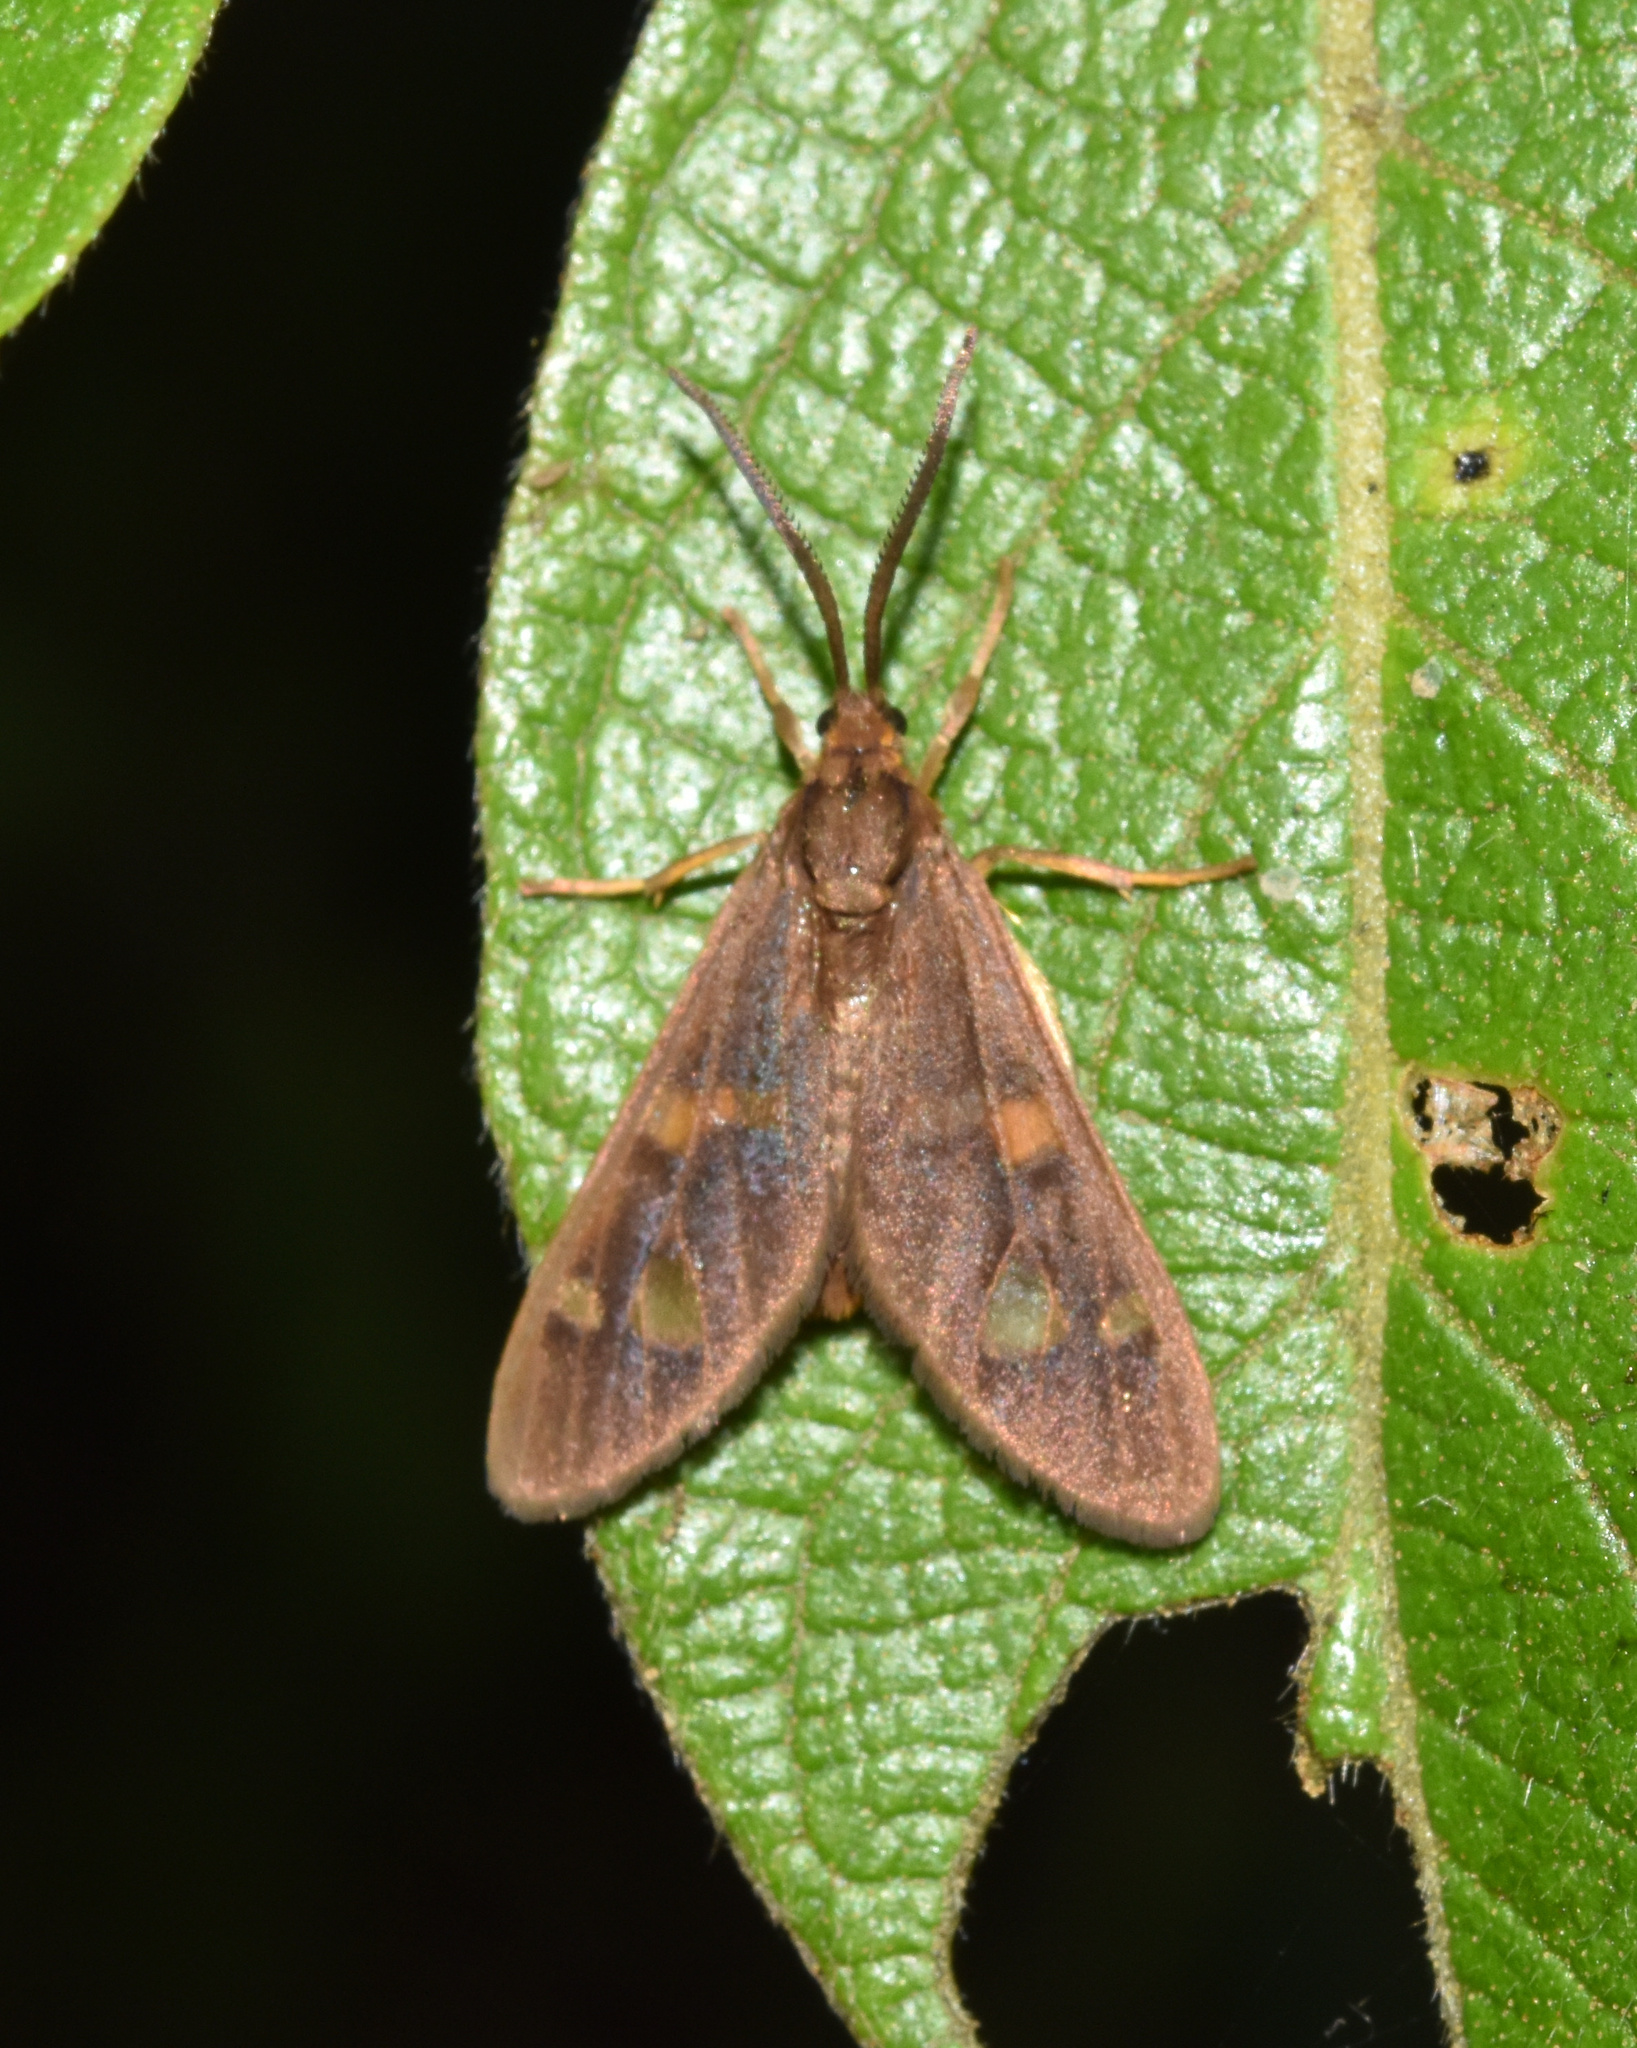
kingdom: Animalia
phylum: Arthropoda
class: Insecta
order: Lepidoptera
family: Erebidae
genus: Pseudonaclia
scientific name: Pseudonaclia puella
